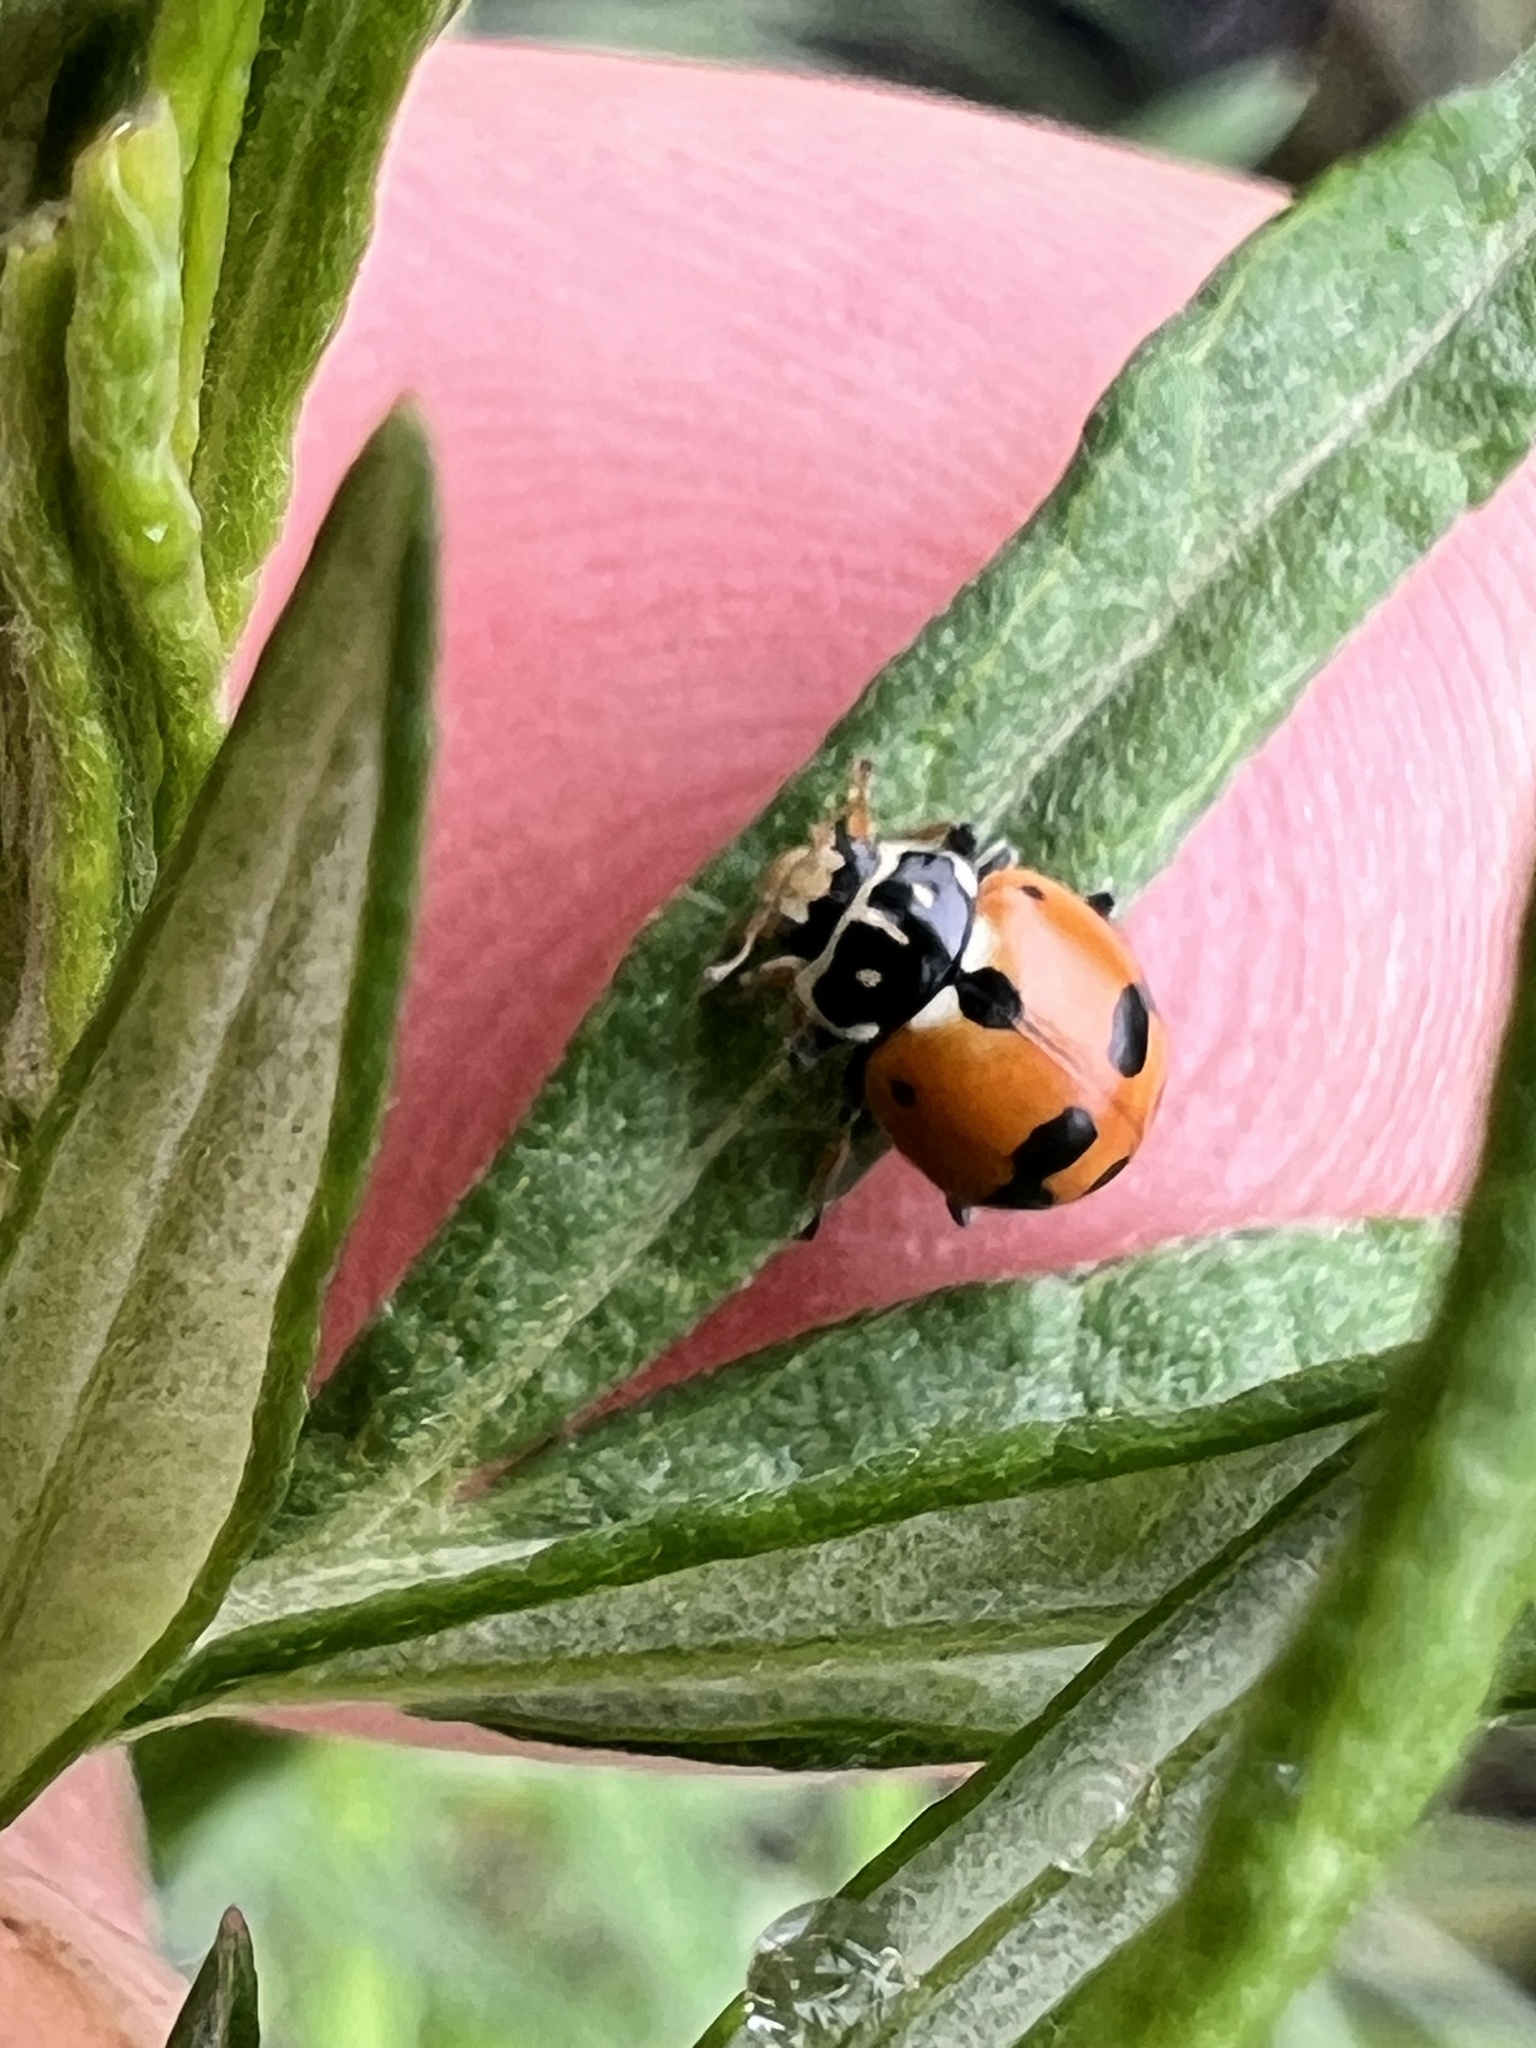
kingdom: Animalia
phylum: Arthropoda
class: Insecta
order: Coleoptera
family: Coccinellidae
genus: Hippodamia
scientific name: Hippodamia variegata
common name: Ladybird beetle
